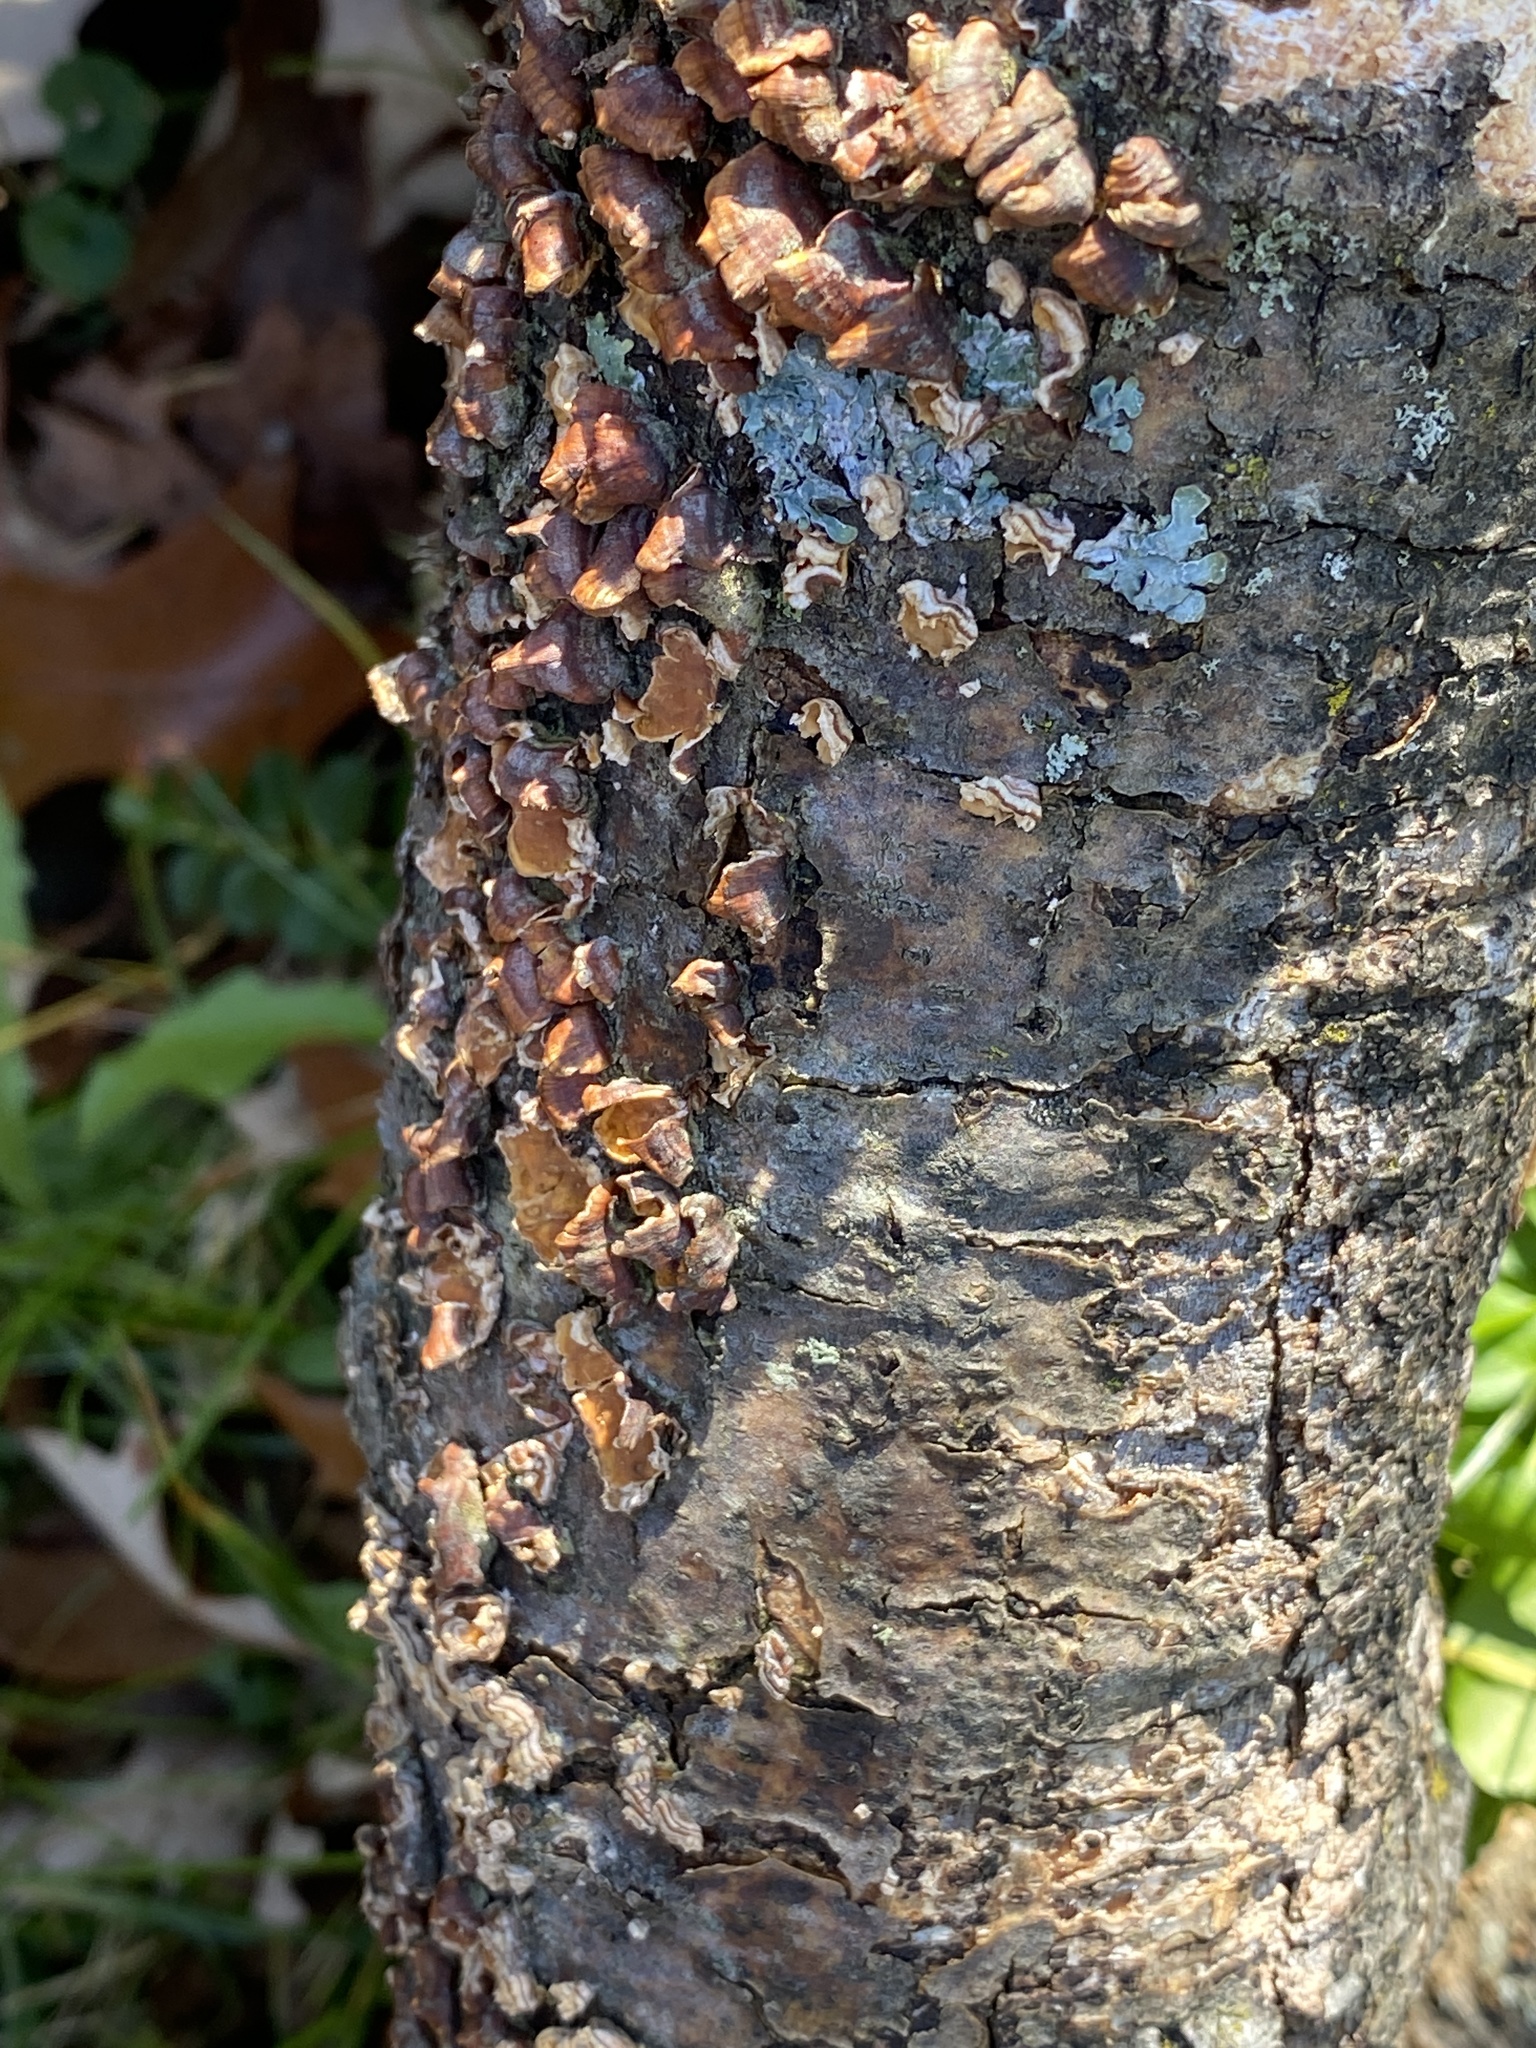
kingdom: Fungi
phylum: Basidiomycota
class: Agaricomycetes
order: Russulales
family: Stereaceae
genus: Stereum
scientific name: Stereum complicatum
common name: Crowded parchment
